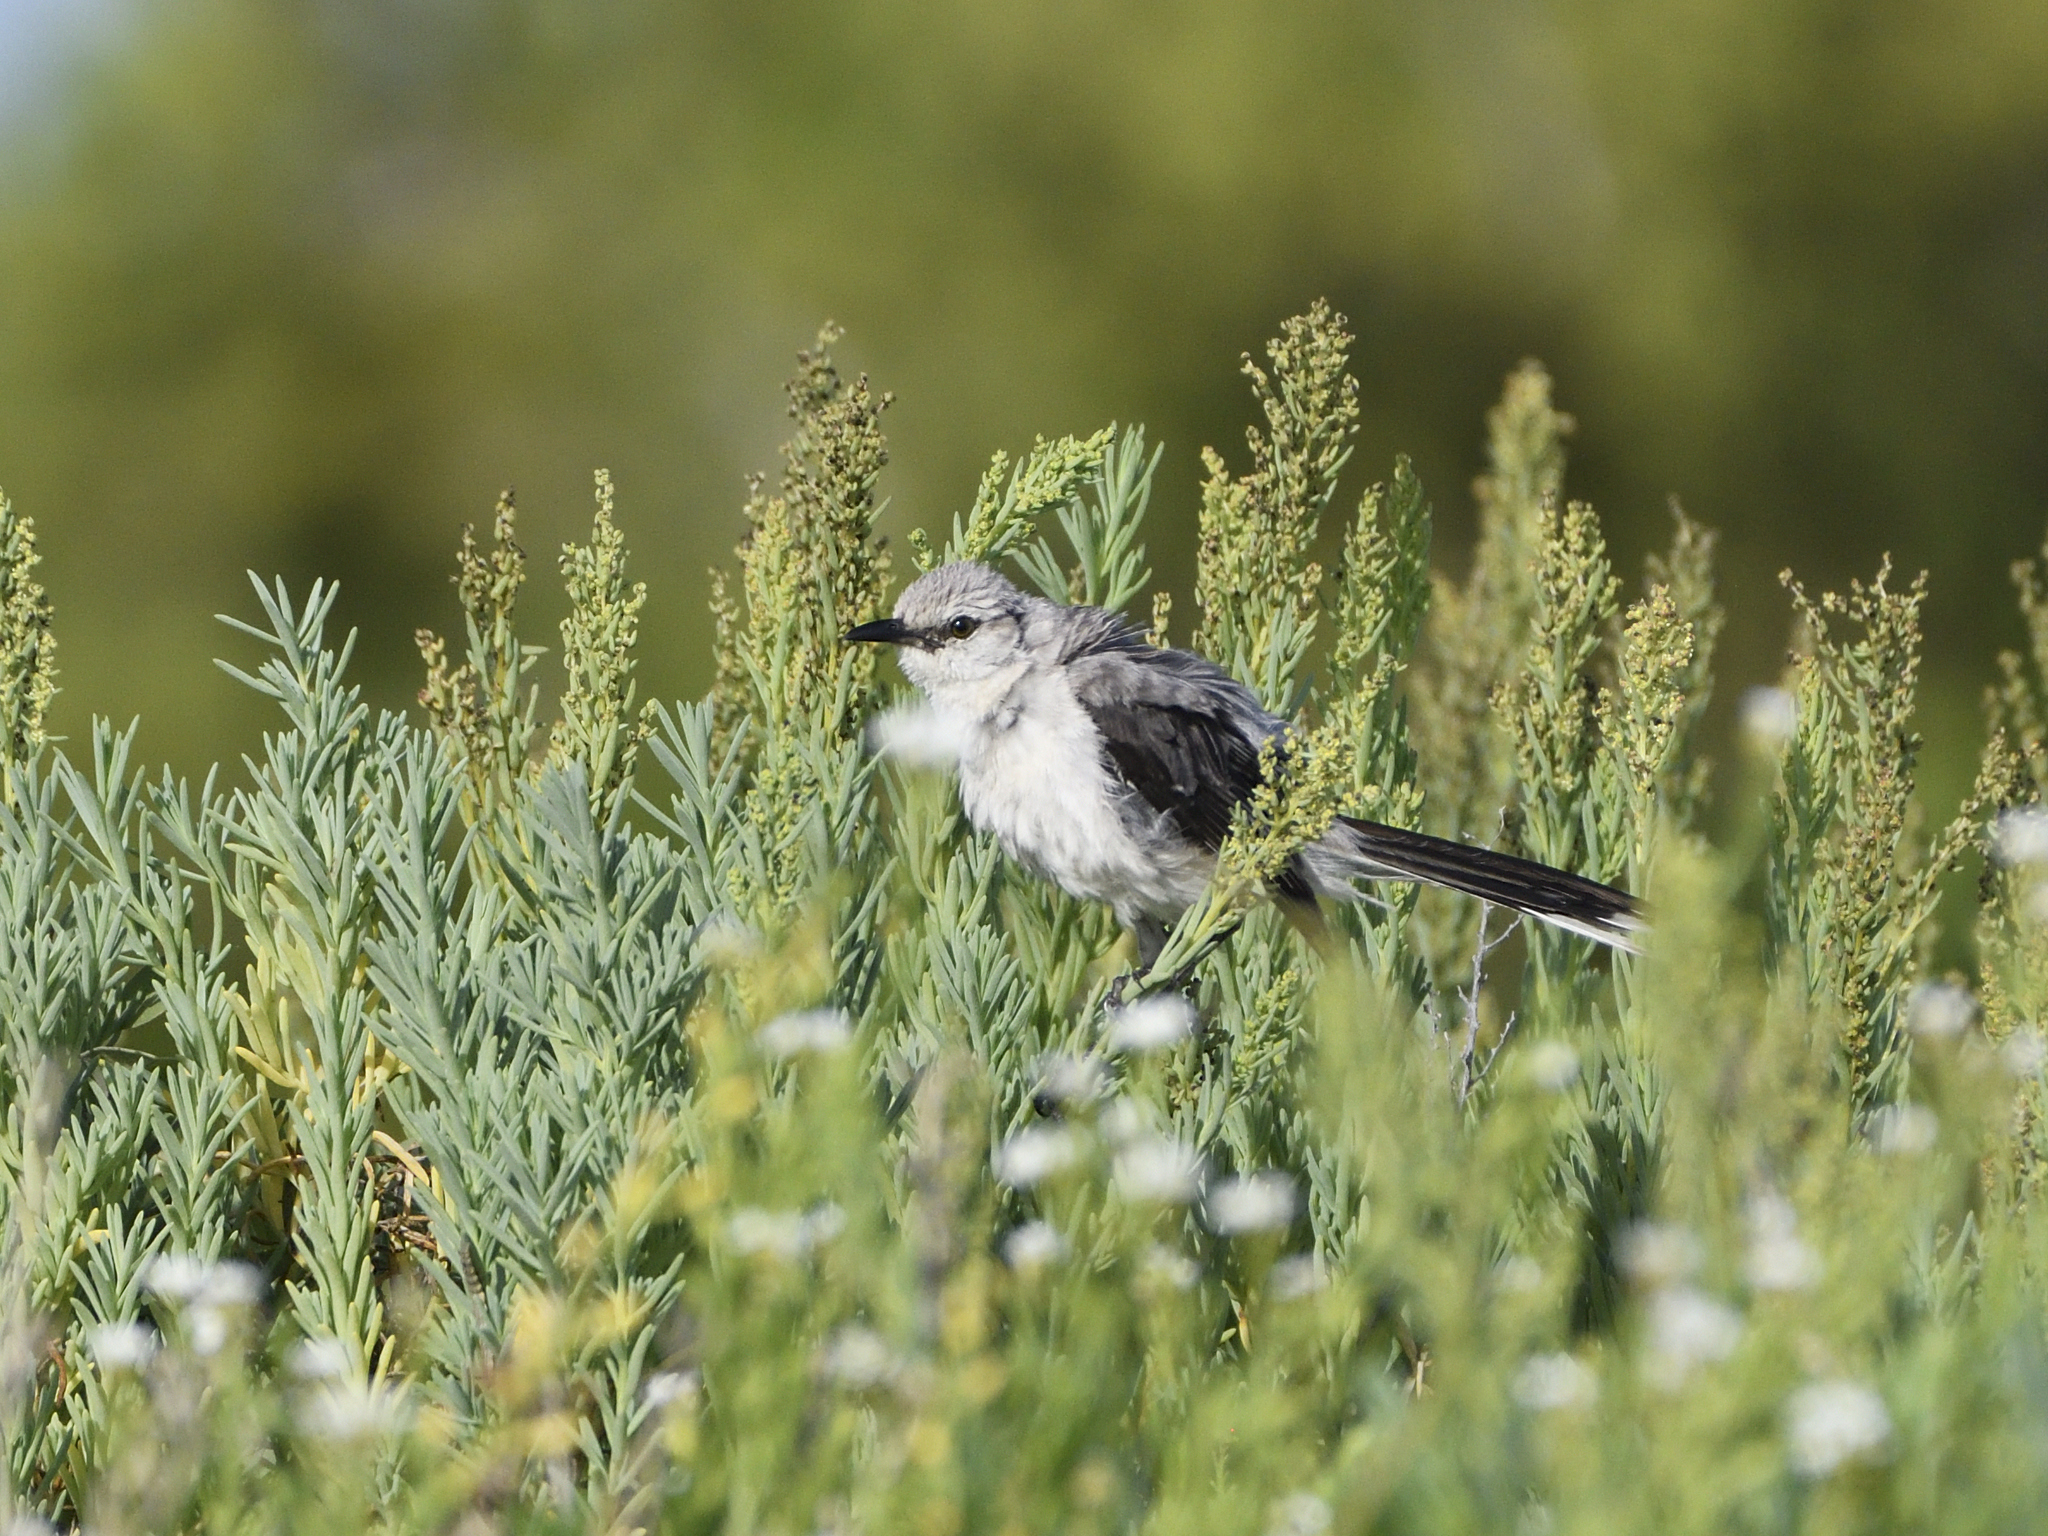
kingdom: Animalia
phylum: Chordata
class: Aves
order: Passeriformes
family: Mimidae
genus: Mimus
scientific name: Mimus gilvus
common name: Tropical mockingbird
